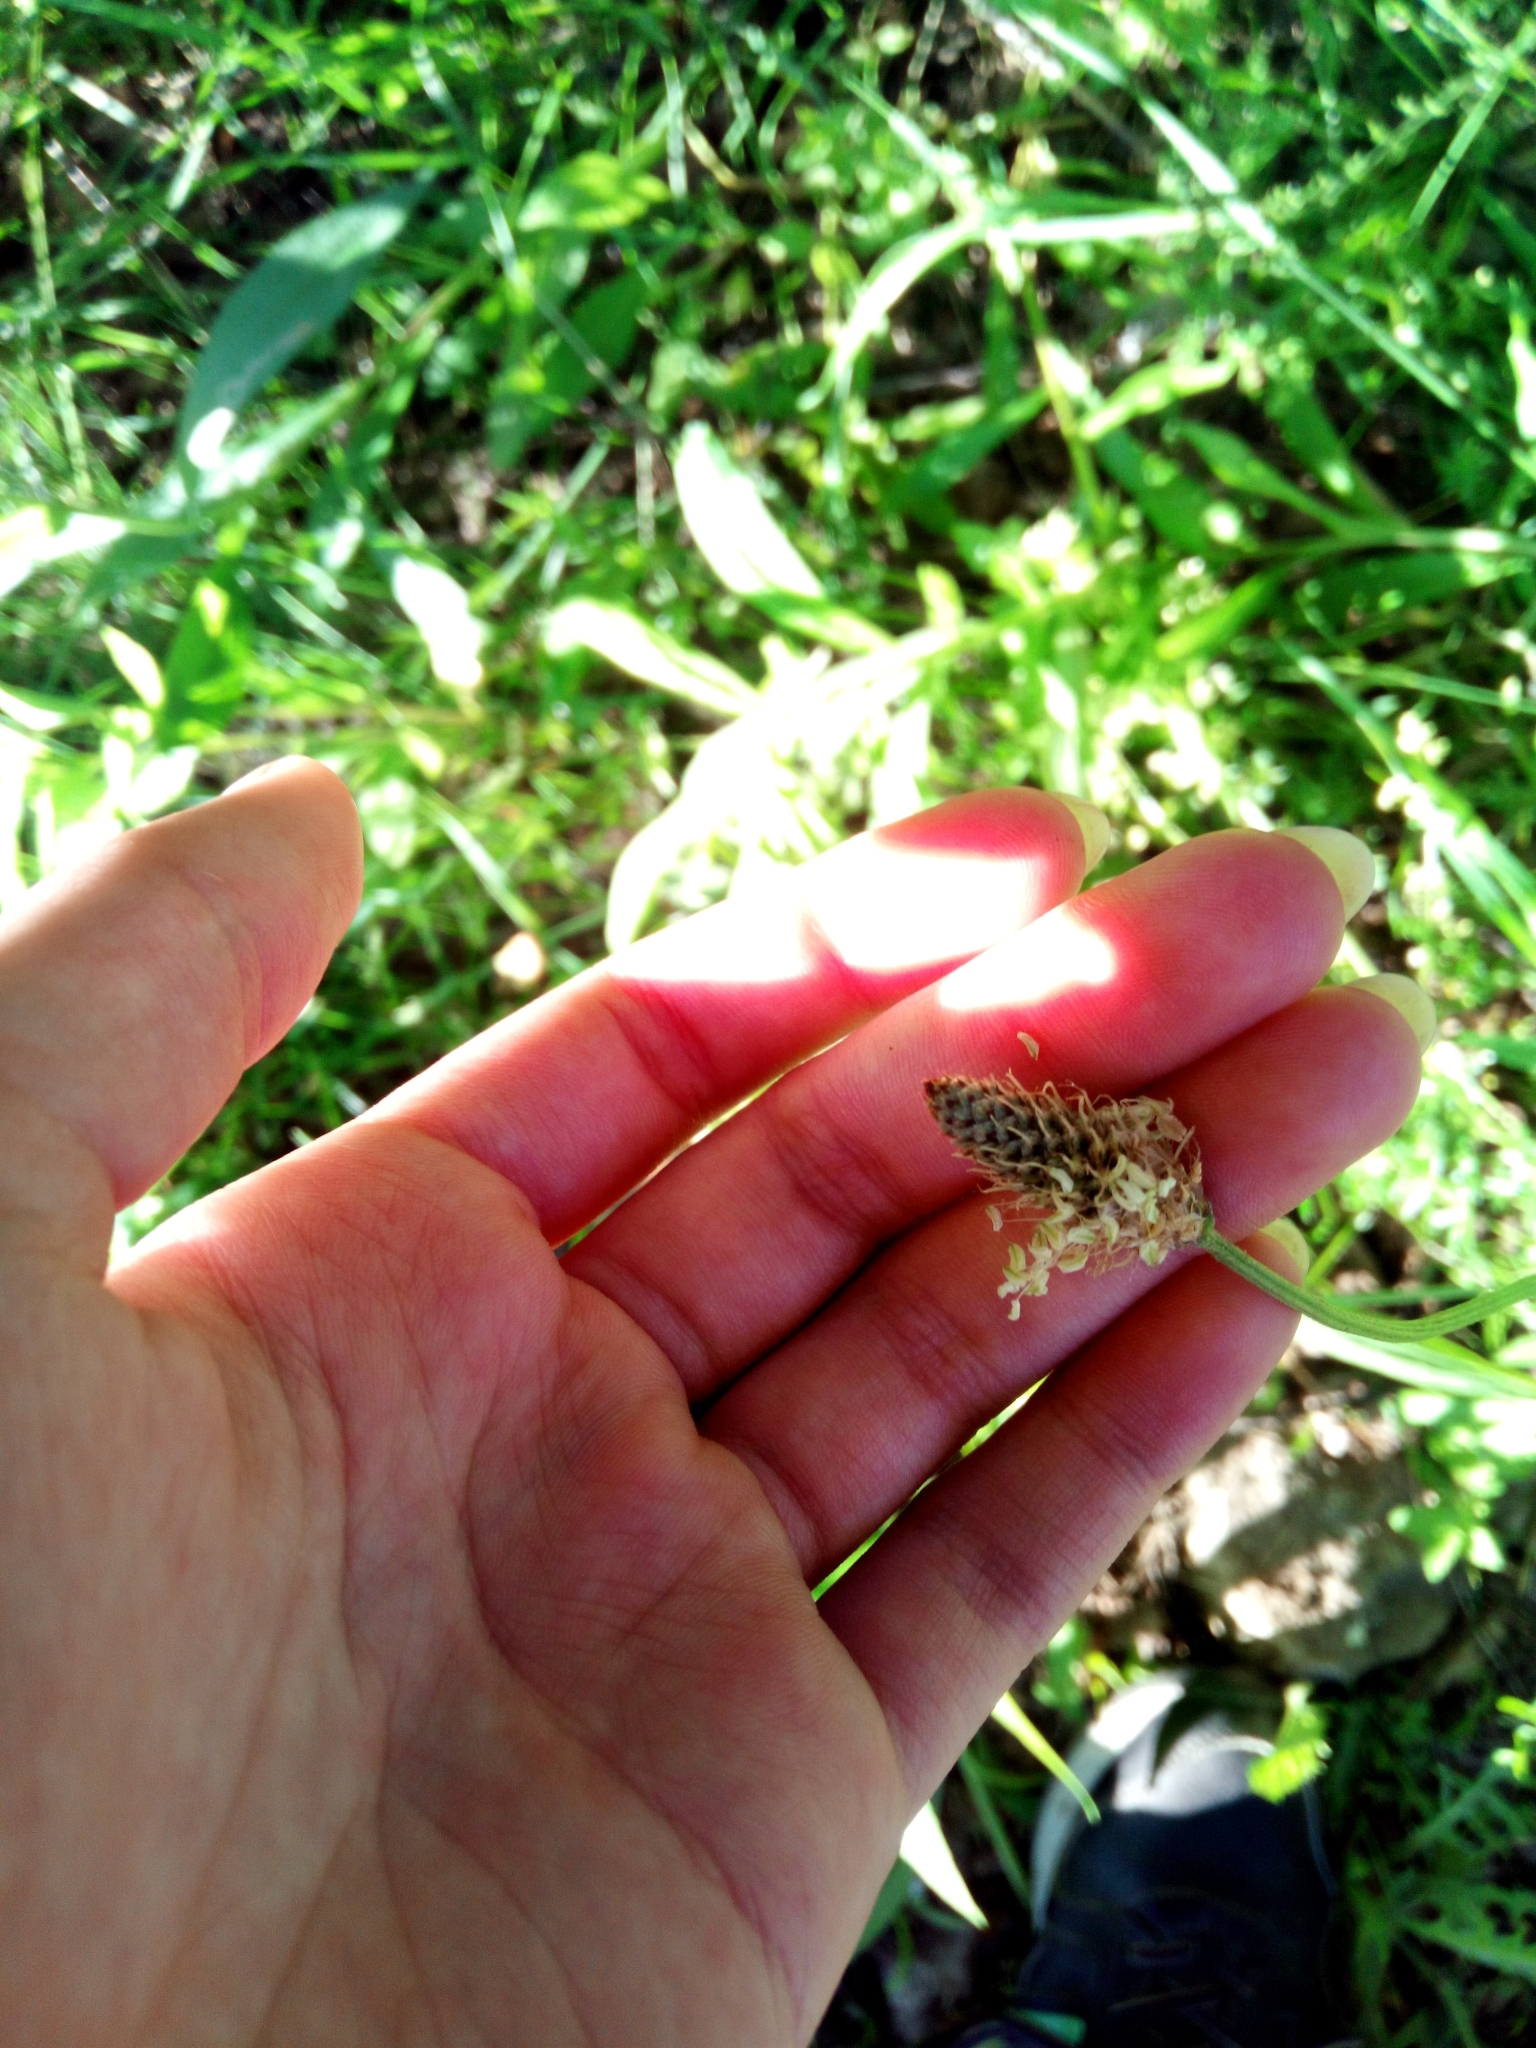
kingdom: Plantae
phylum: Tracheophyta
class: Magnoliopsida
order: Lamiales
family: Plantaginaceae
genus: Plantago
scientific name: Plantago lanceolata
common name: Ribwort plantain
